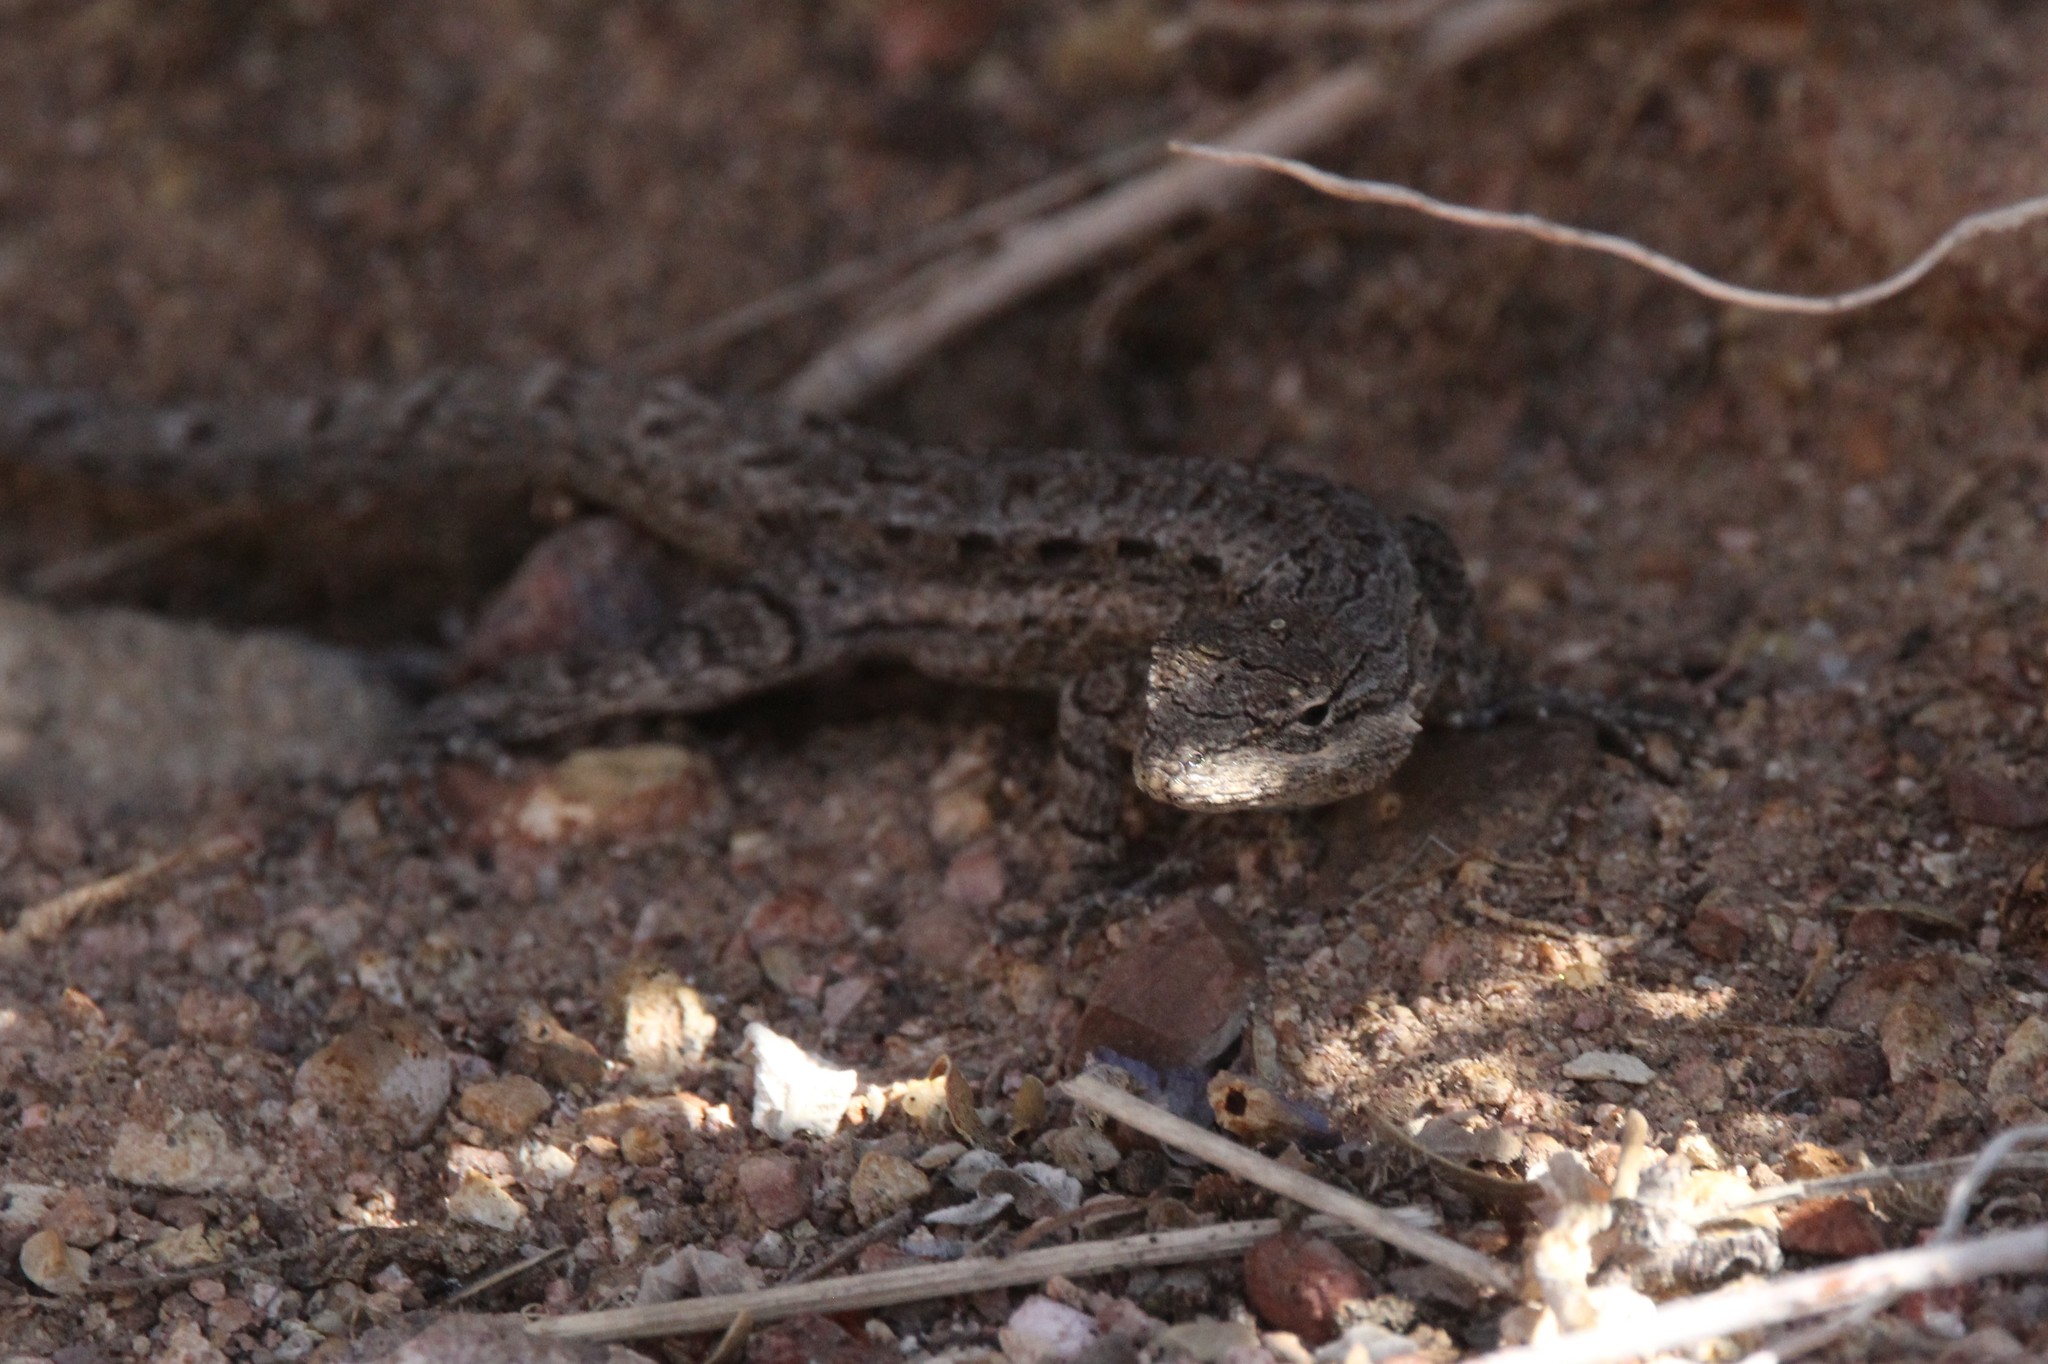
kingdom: Animalia
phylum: Chordata
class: Squamata
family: Phrynosomatidae
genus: Urosaurus
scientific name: Urosaurus ornatus
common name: Ornate tree lizard
